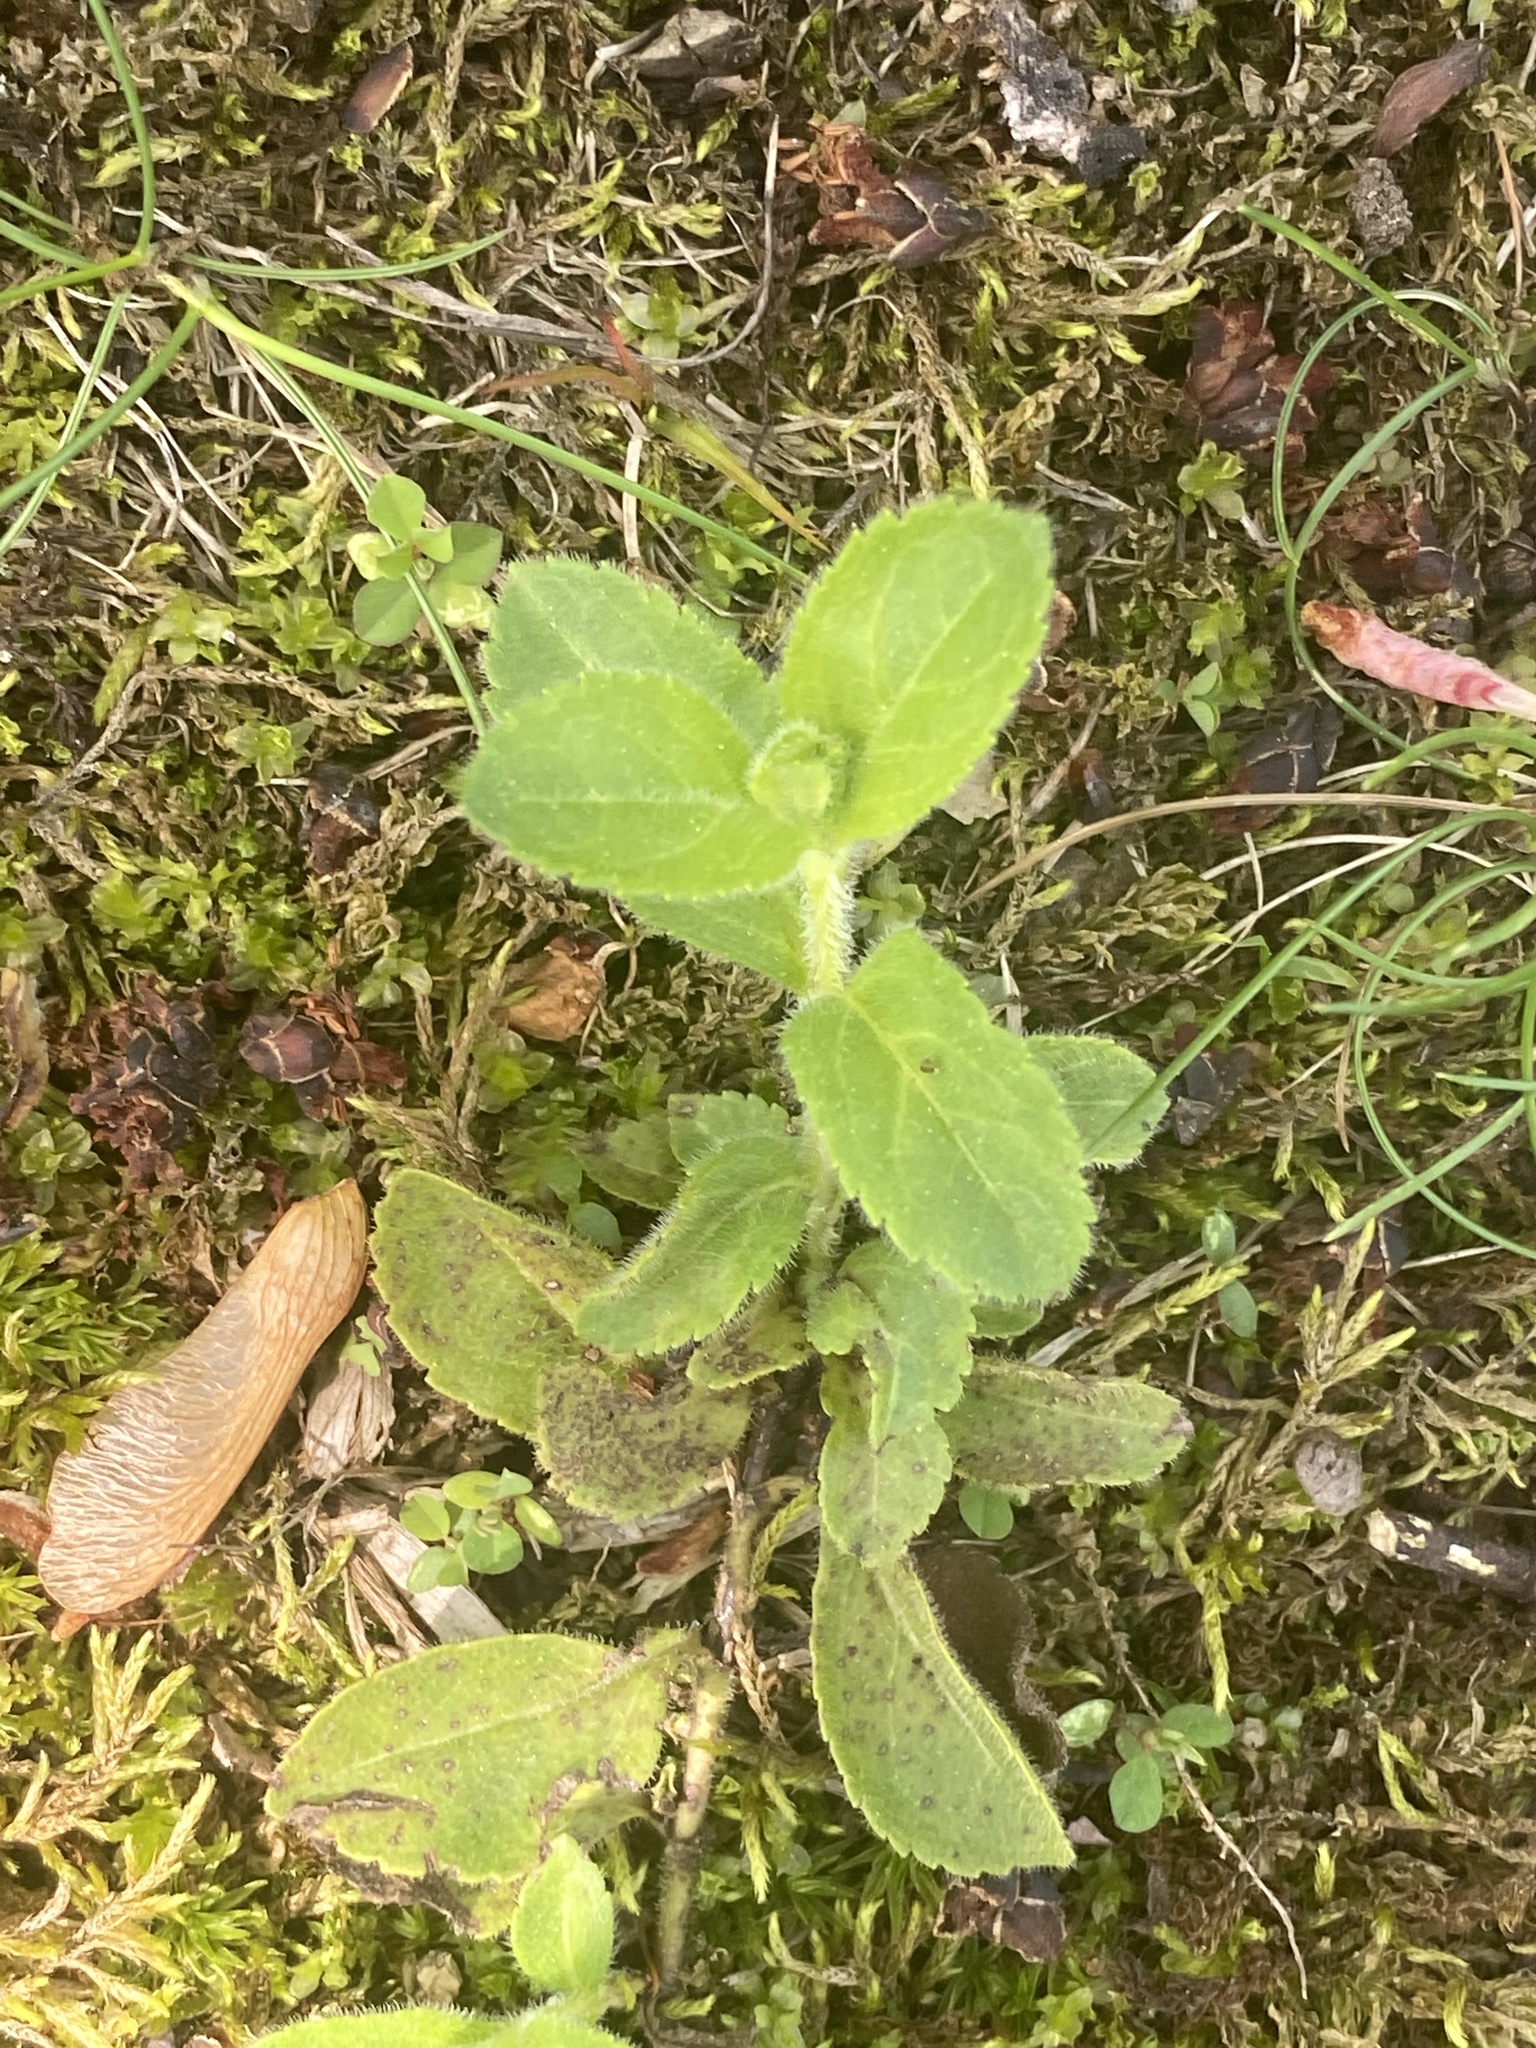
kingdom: Plantae
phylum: Tracheophyta
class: Magnoliopsida
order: Lamiales
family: Plantaginaceae
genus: Veronica
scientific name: Veronica officinalis
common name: Common speedwell
